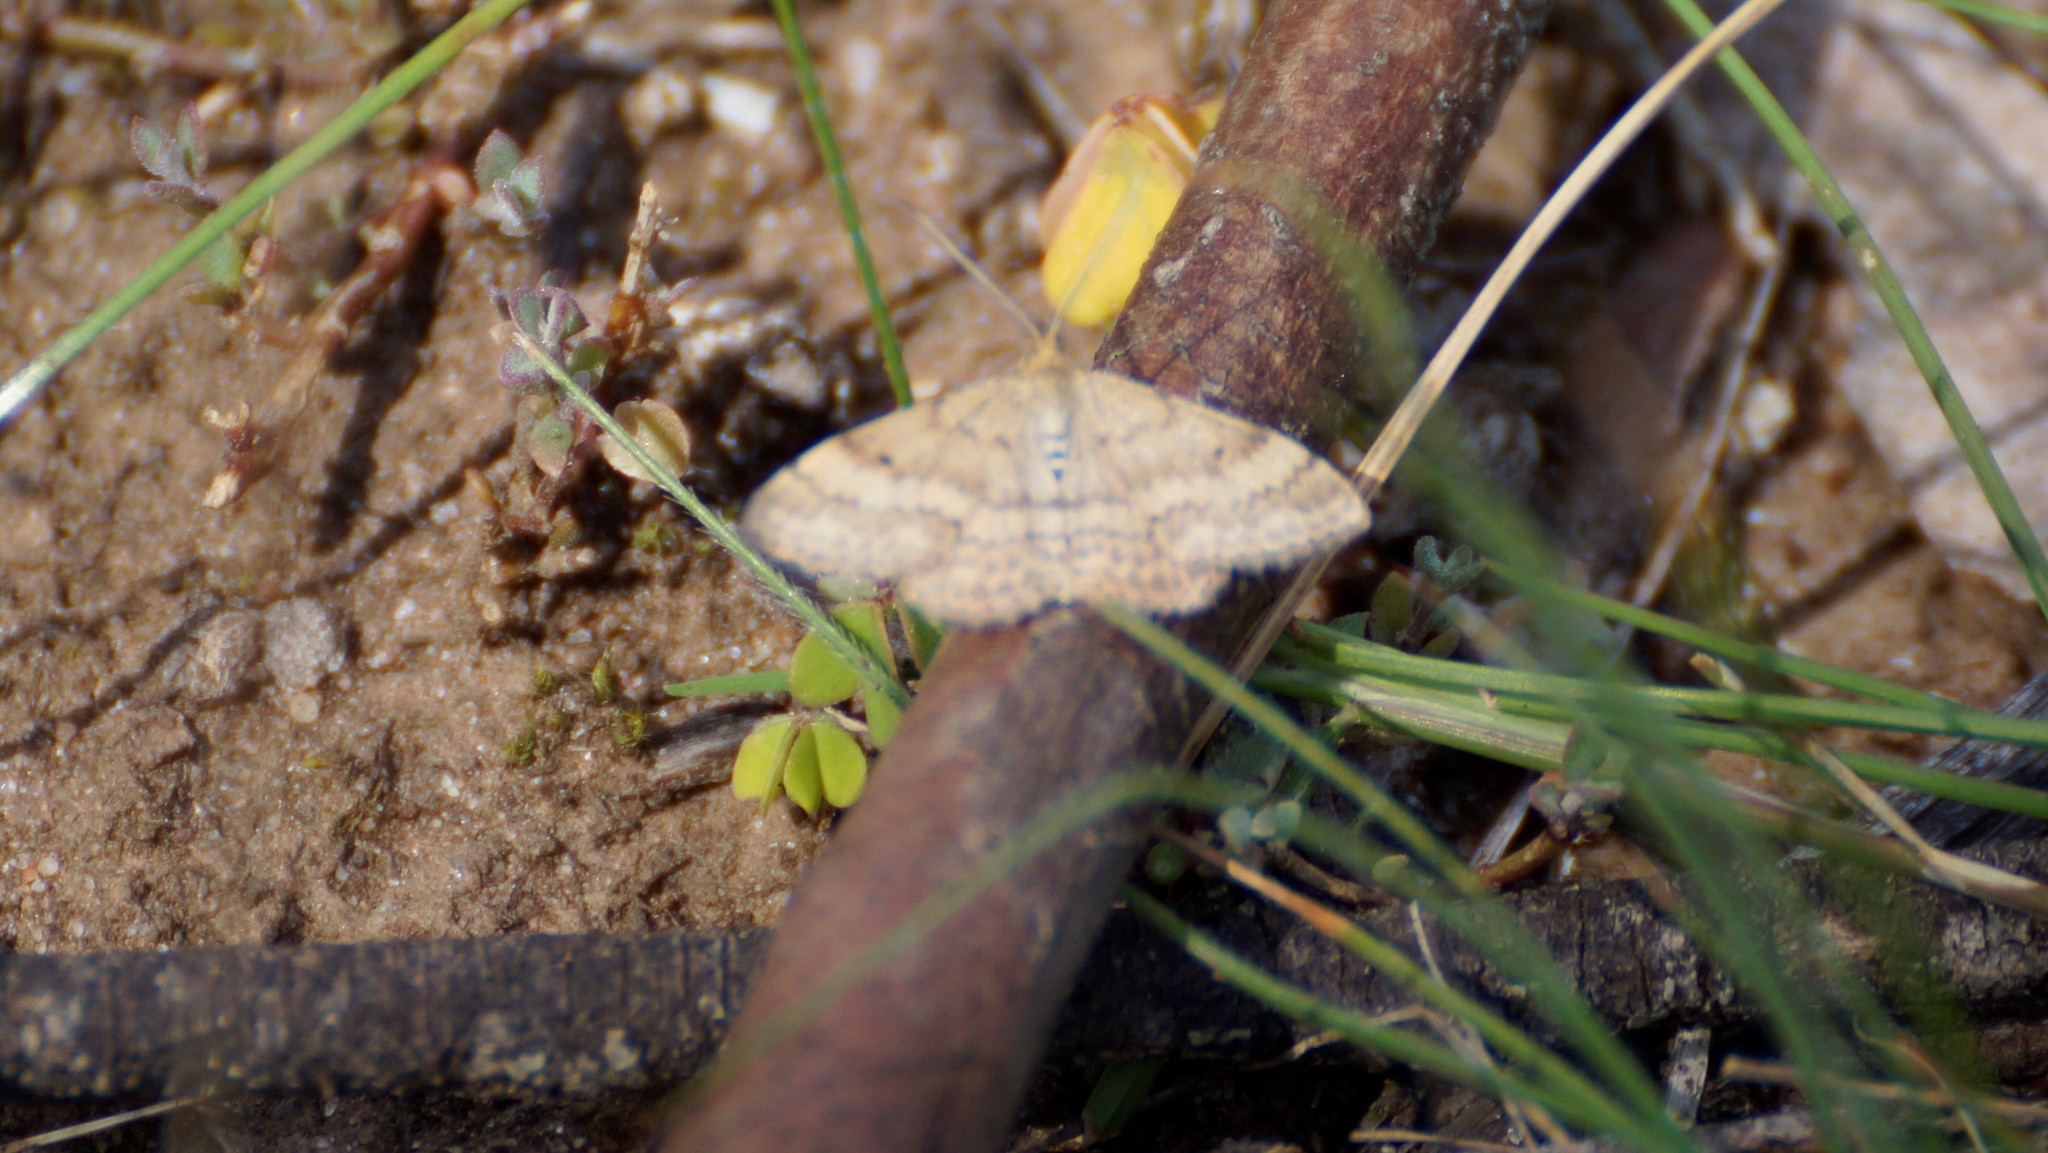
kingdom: Animalia
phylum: Arthropoda
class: Insecta
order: Lepidoptera
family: Geometridae
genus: Scopula
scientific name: Scopula rubraria
